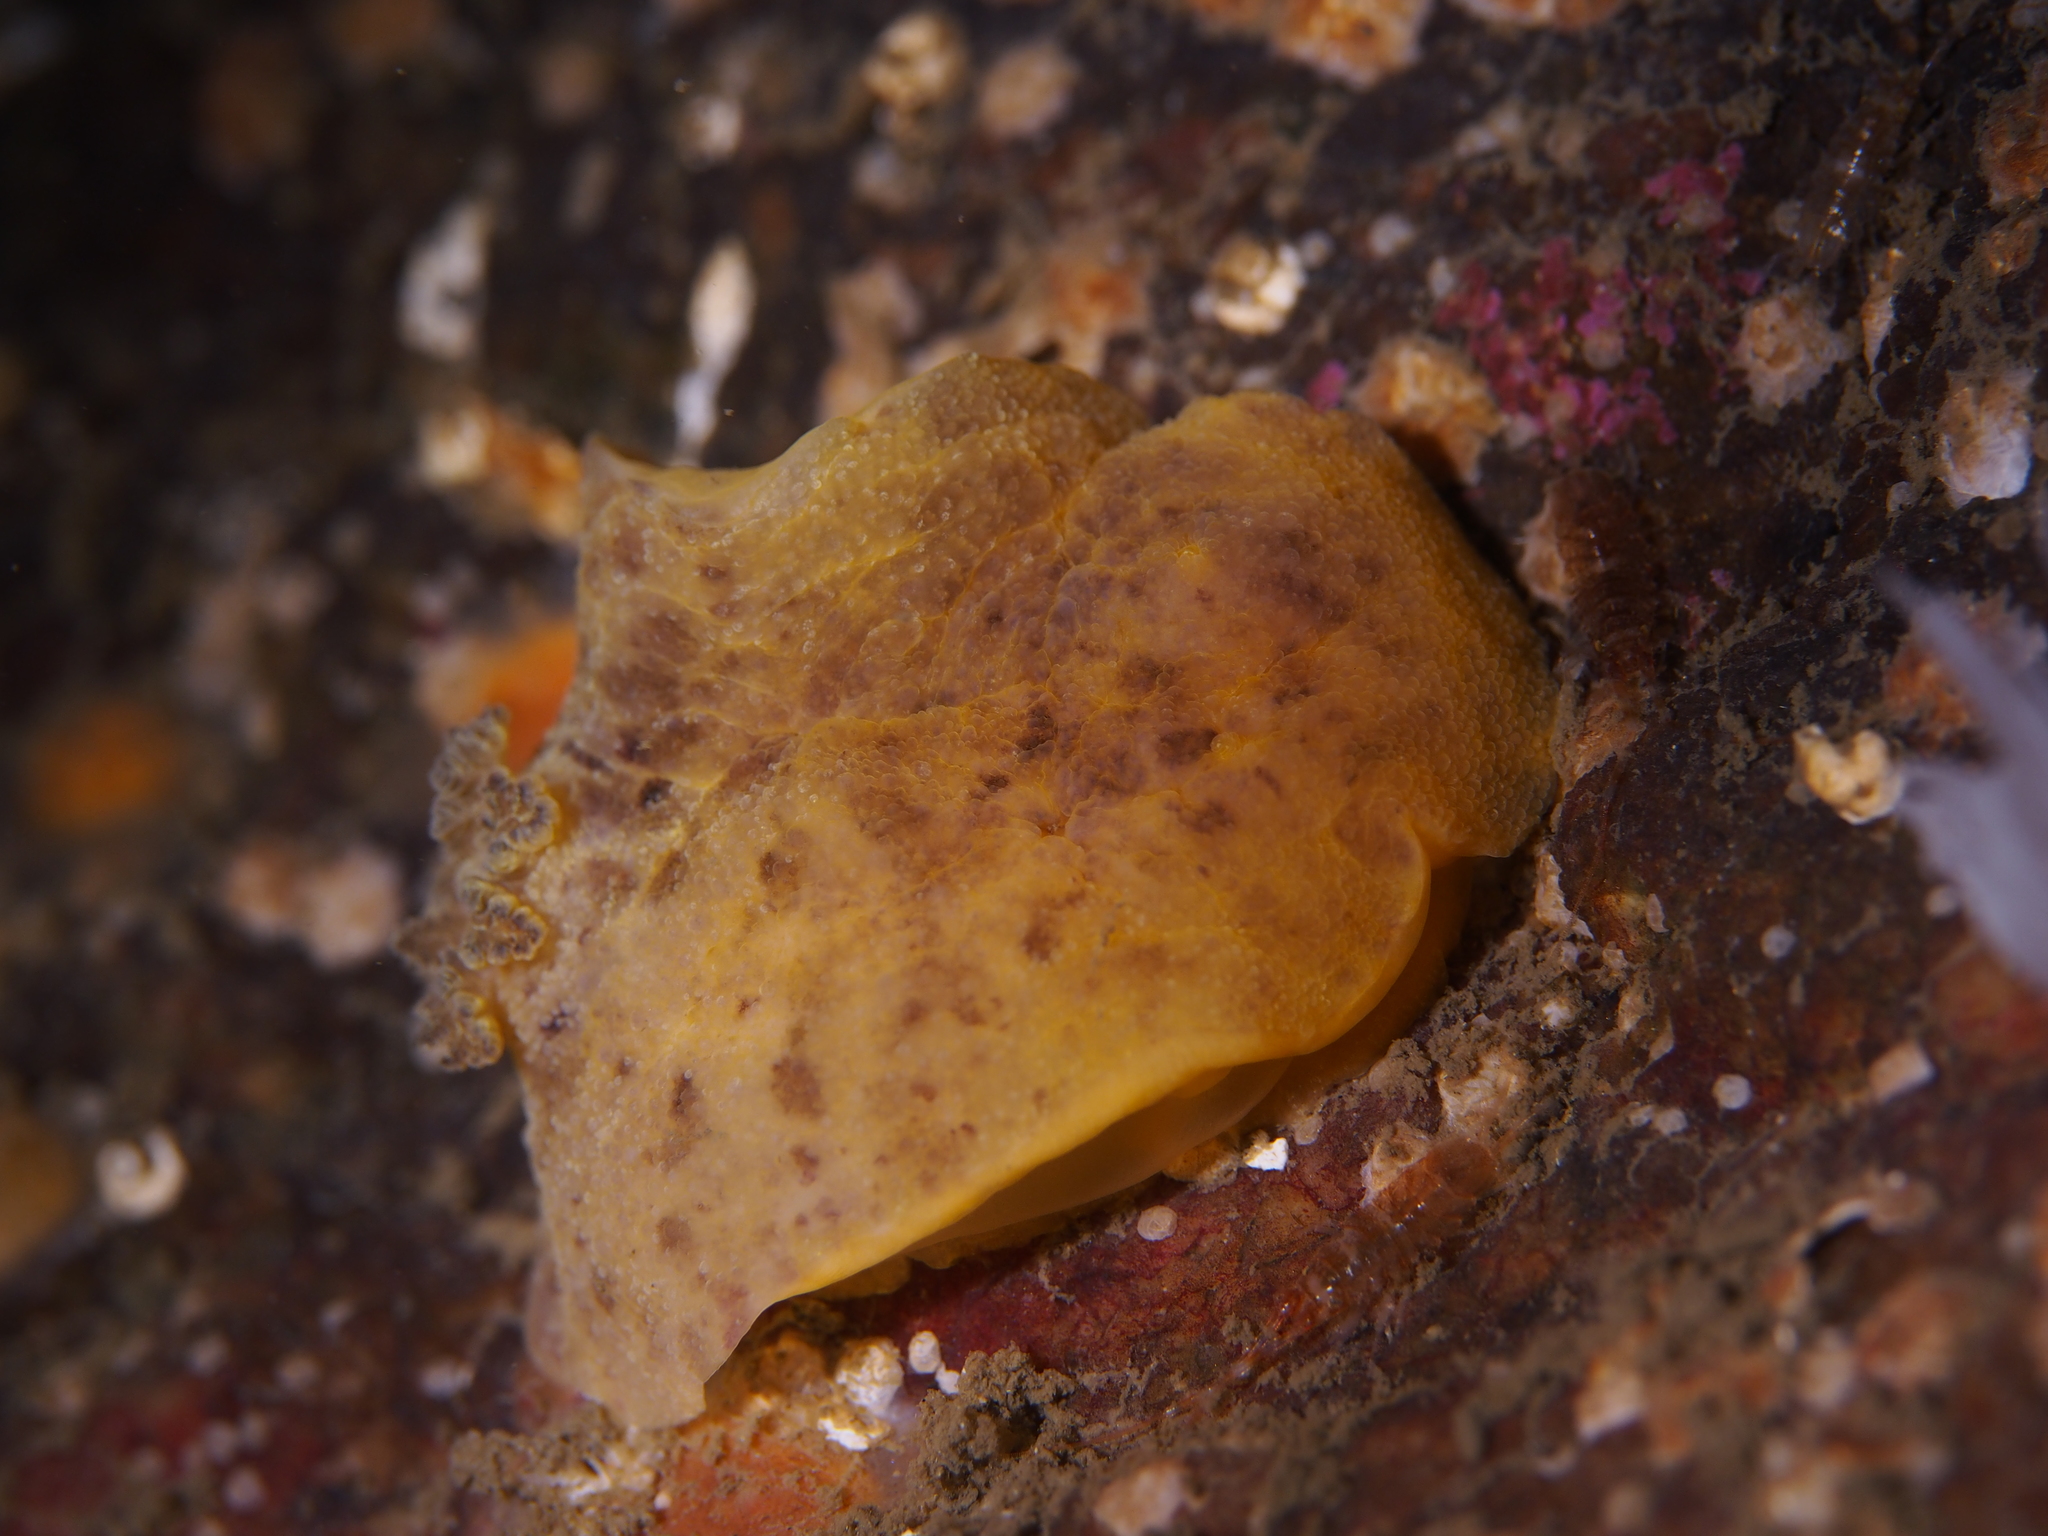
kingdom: Animalia
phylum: Mollusca
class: Gastropoda
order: Nudibranchia
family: Dorididae
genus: Doris
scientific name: Doris pseudoargus
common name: Sea lemon
